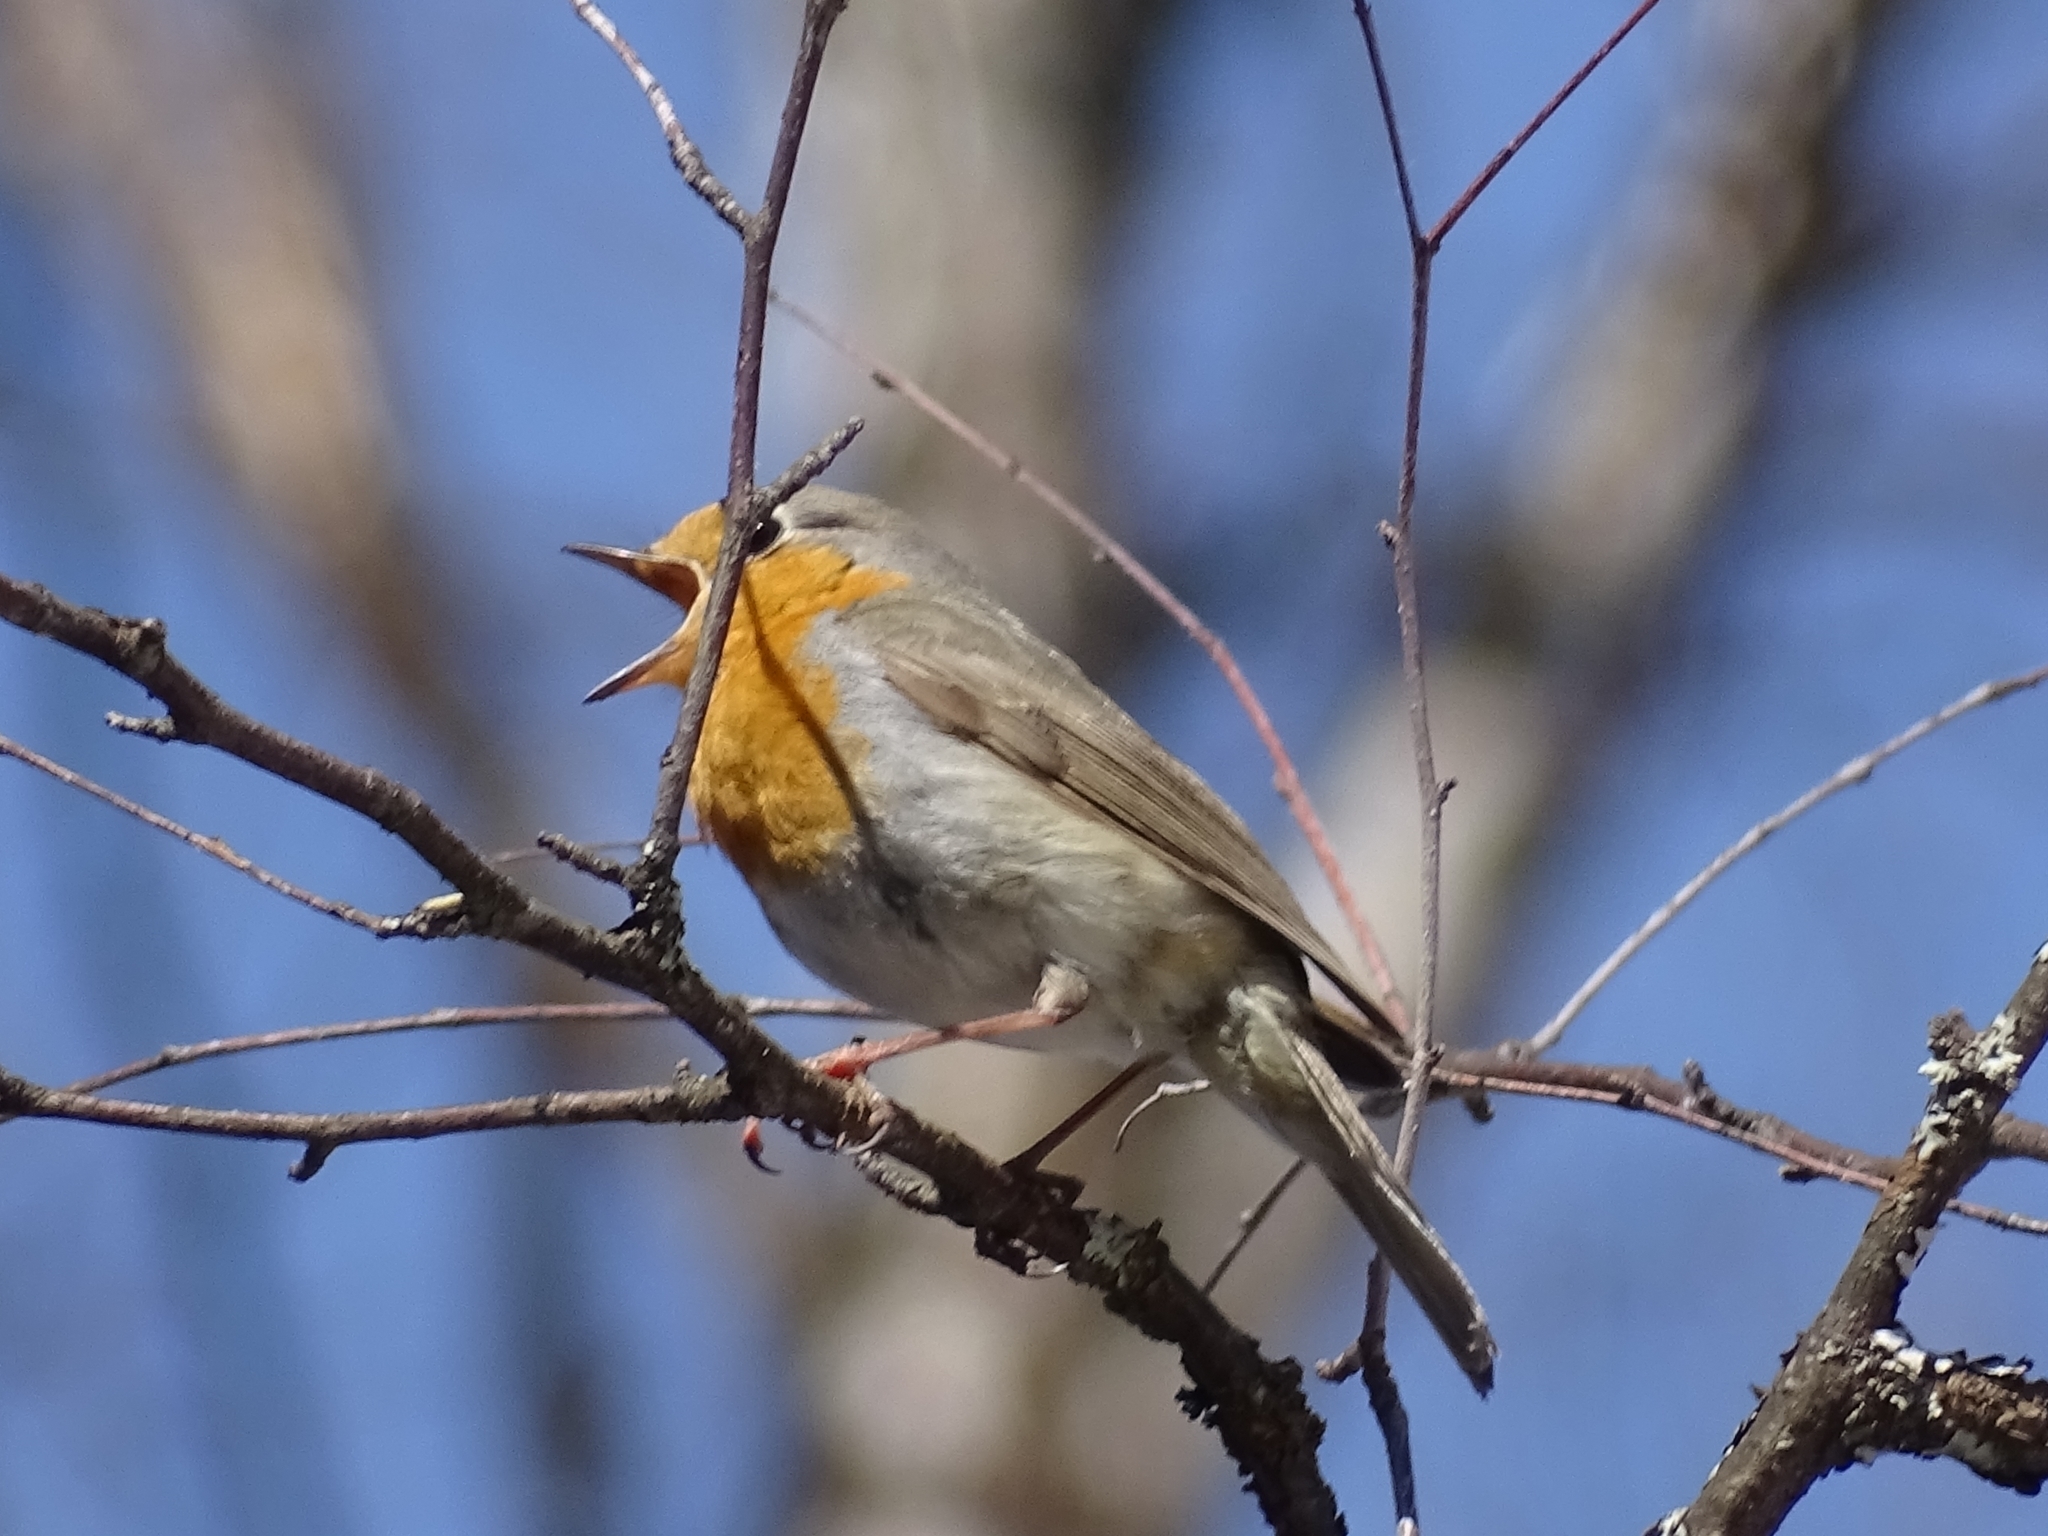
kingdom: Animalia
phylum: Chordata
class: Aves
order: Passeriformes
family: Muscicapidae
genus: Erithacus
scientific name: Erithacus rubecula
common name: European robin
